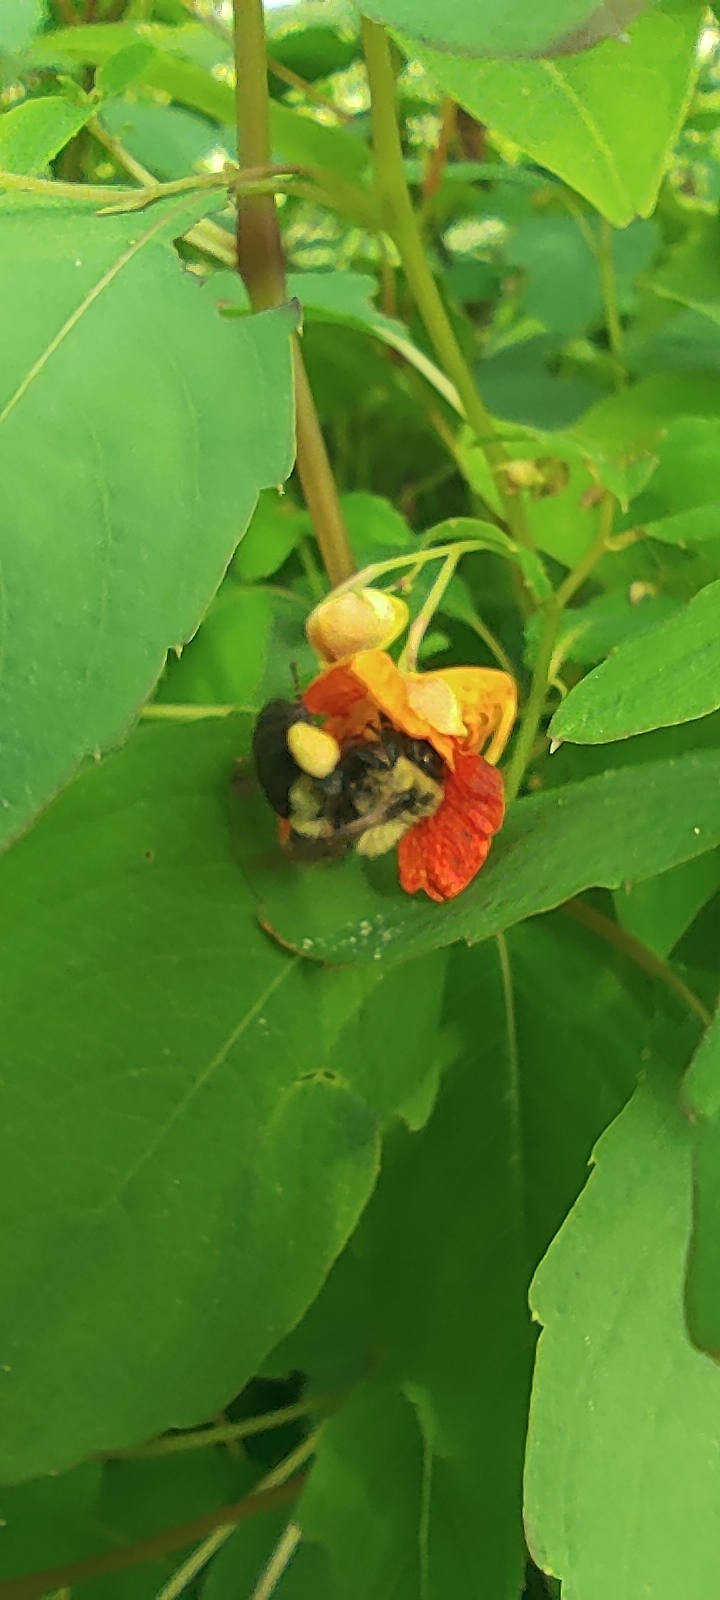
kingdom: Animalia
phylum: Arthropoda
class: Insecta
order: Hymenoptera
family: Apidae
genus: Bombus
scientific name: Bombus impatiens
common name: Common eastern bumble bee
